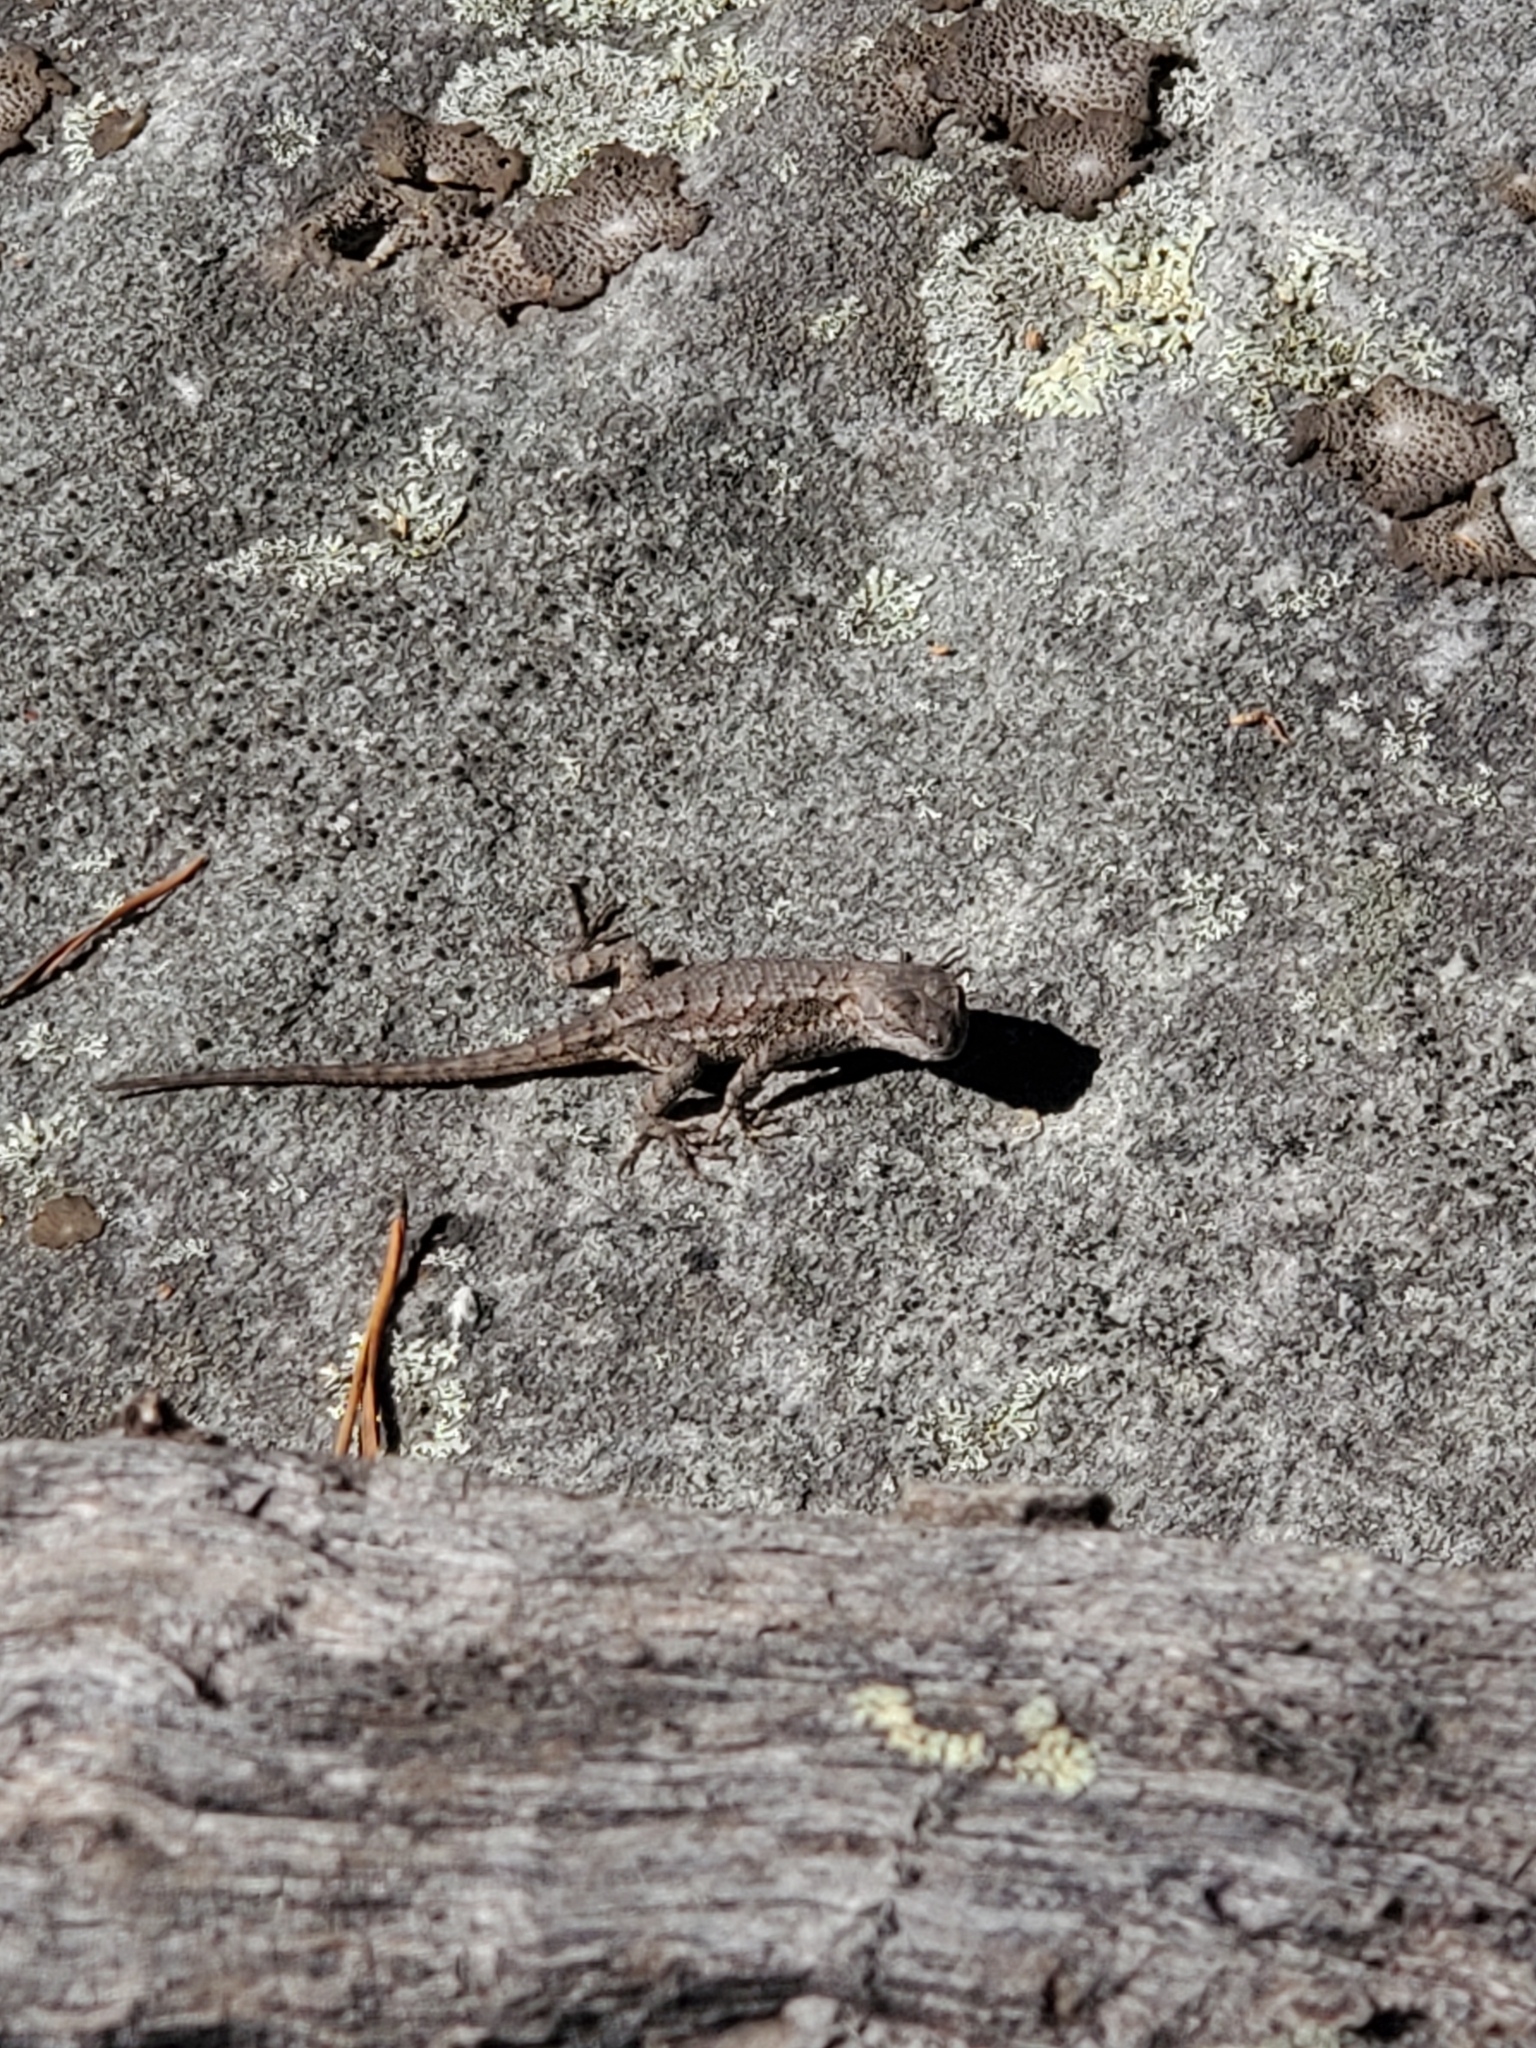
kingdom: Animalia
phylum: Chordata
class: Squamata
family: Phrynosomatidae
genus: Sceloporus
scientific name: Sceloporus undulatus
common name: Eastern fence lizard
